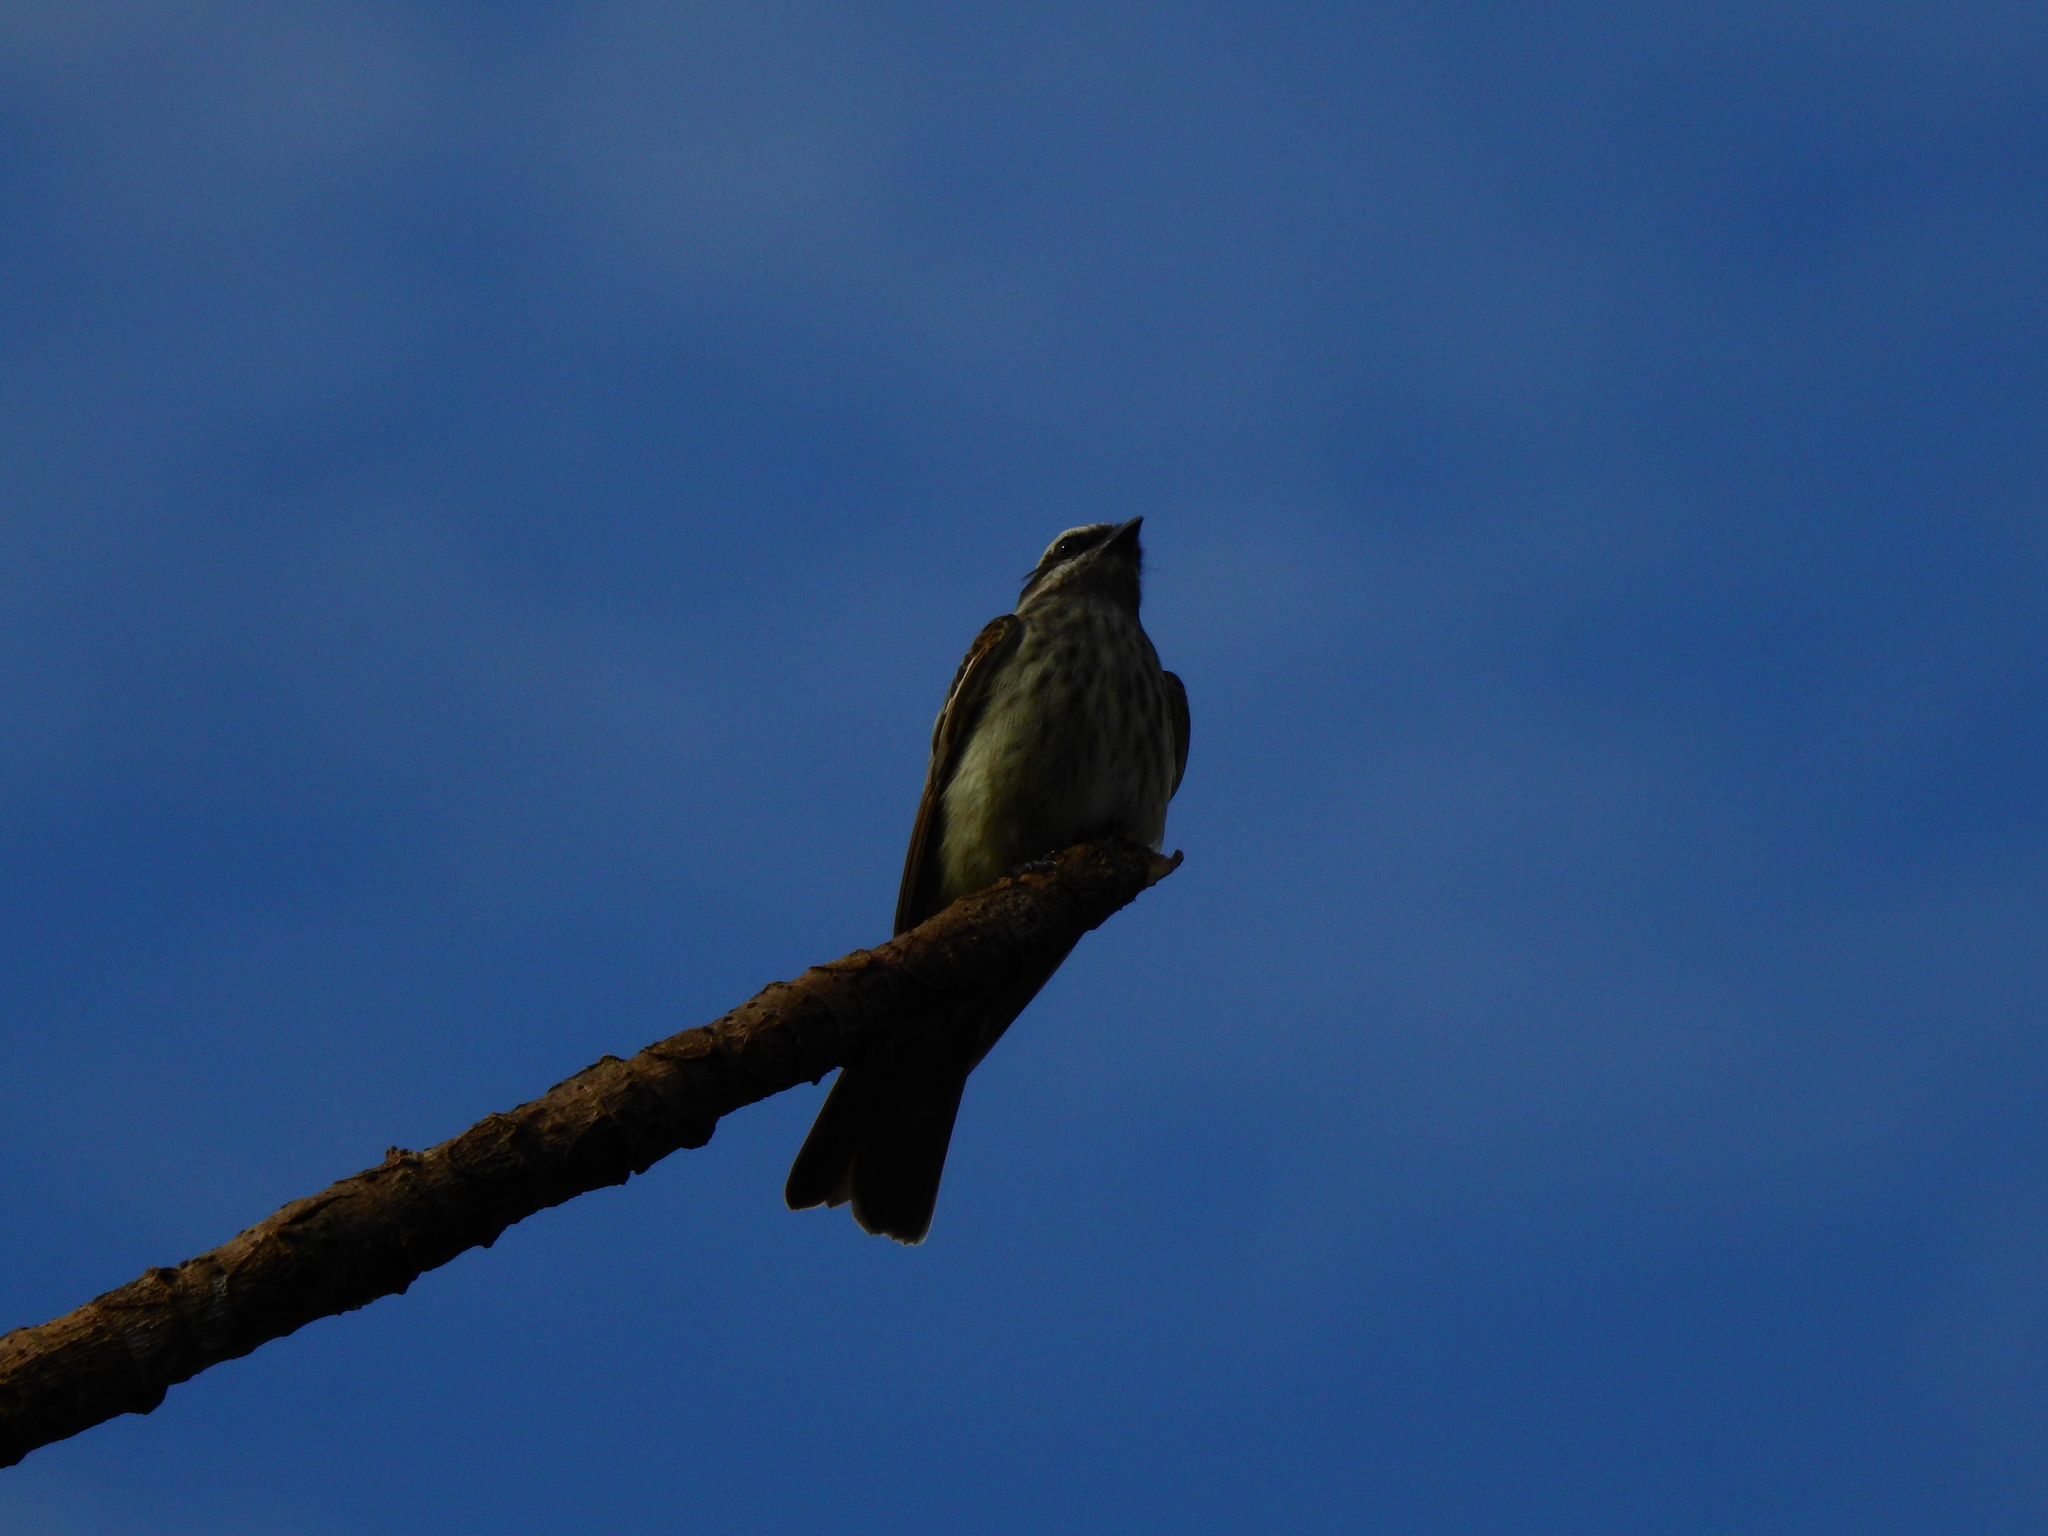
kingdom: Animalia
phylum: Chordata
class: Aves
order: Passeriformes
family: Tyrannidae
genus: Legatus
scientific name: Legatus leucophaius
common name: Piratic flycatcher
